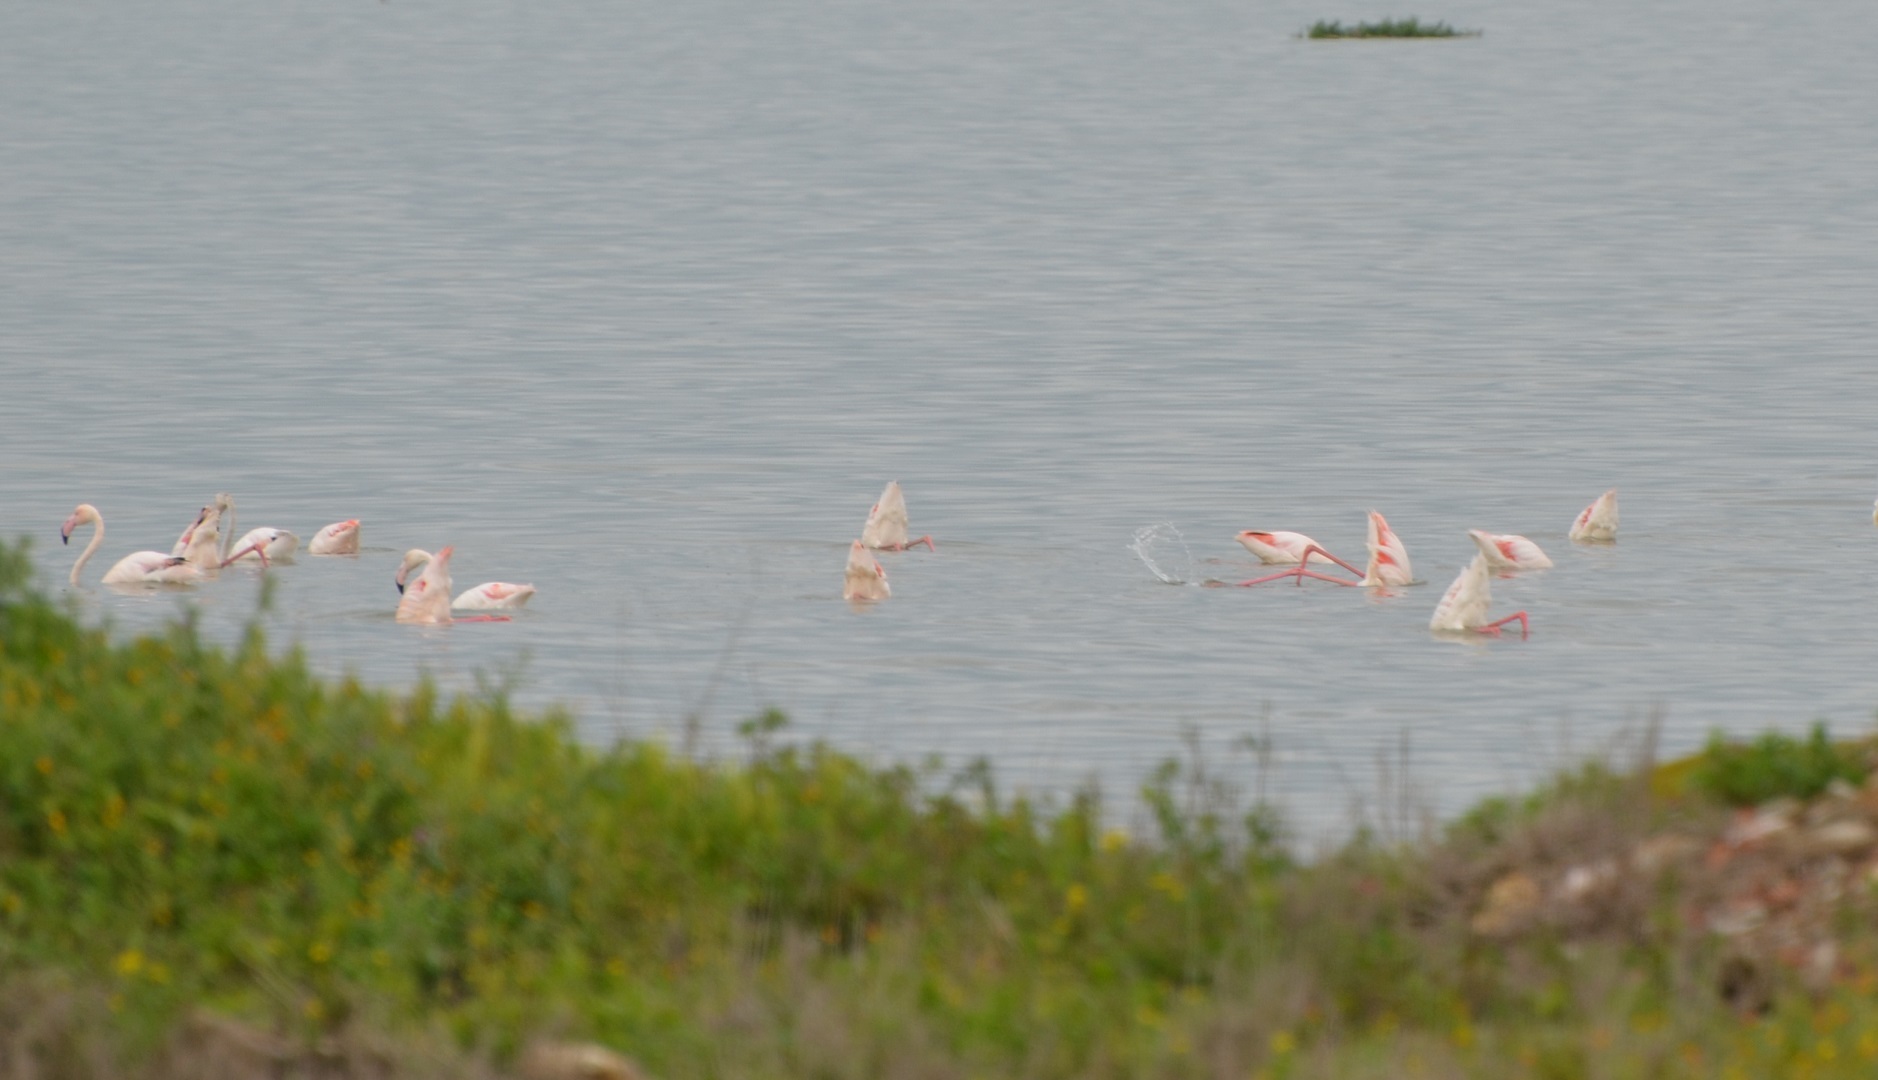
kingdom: Animalia
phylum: Chordata
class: Aves
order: Phoenicopteriformes
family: Phoenicopteridae
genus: Phoenicopterus
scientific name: Phoenicopterus roseus
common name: Greater flamingo
